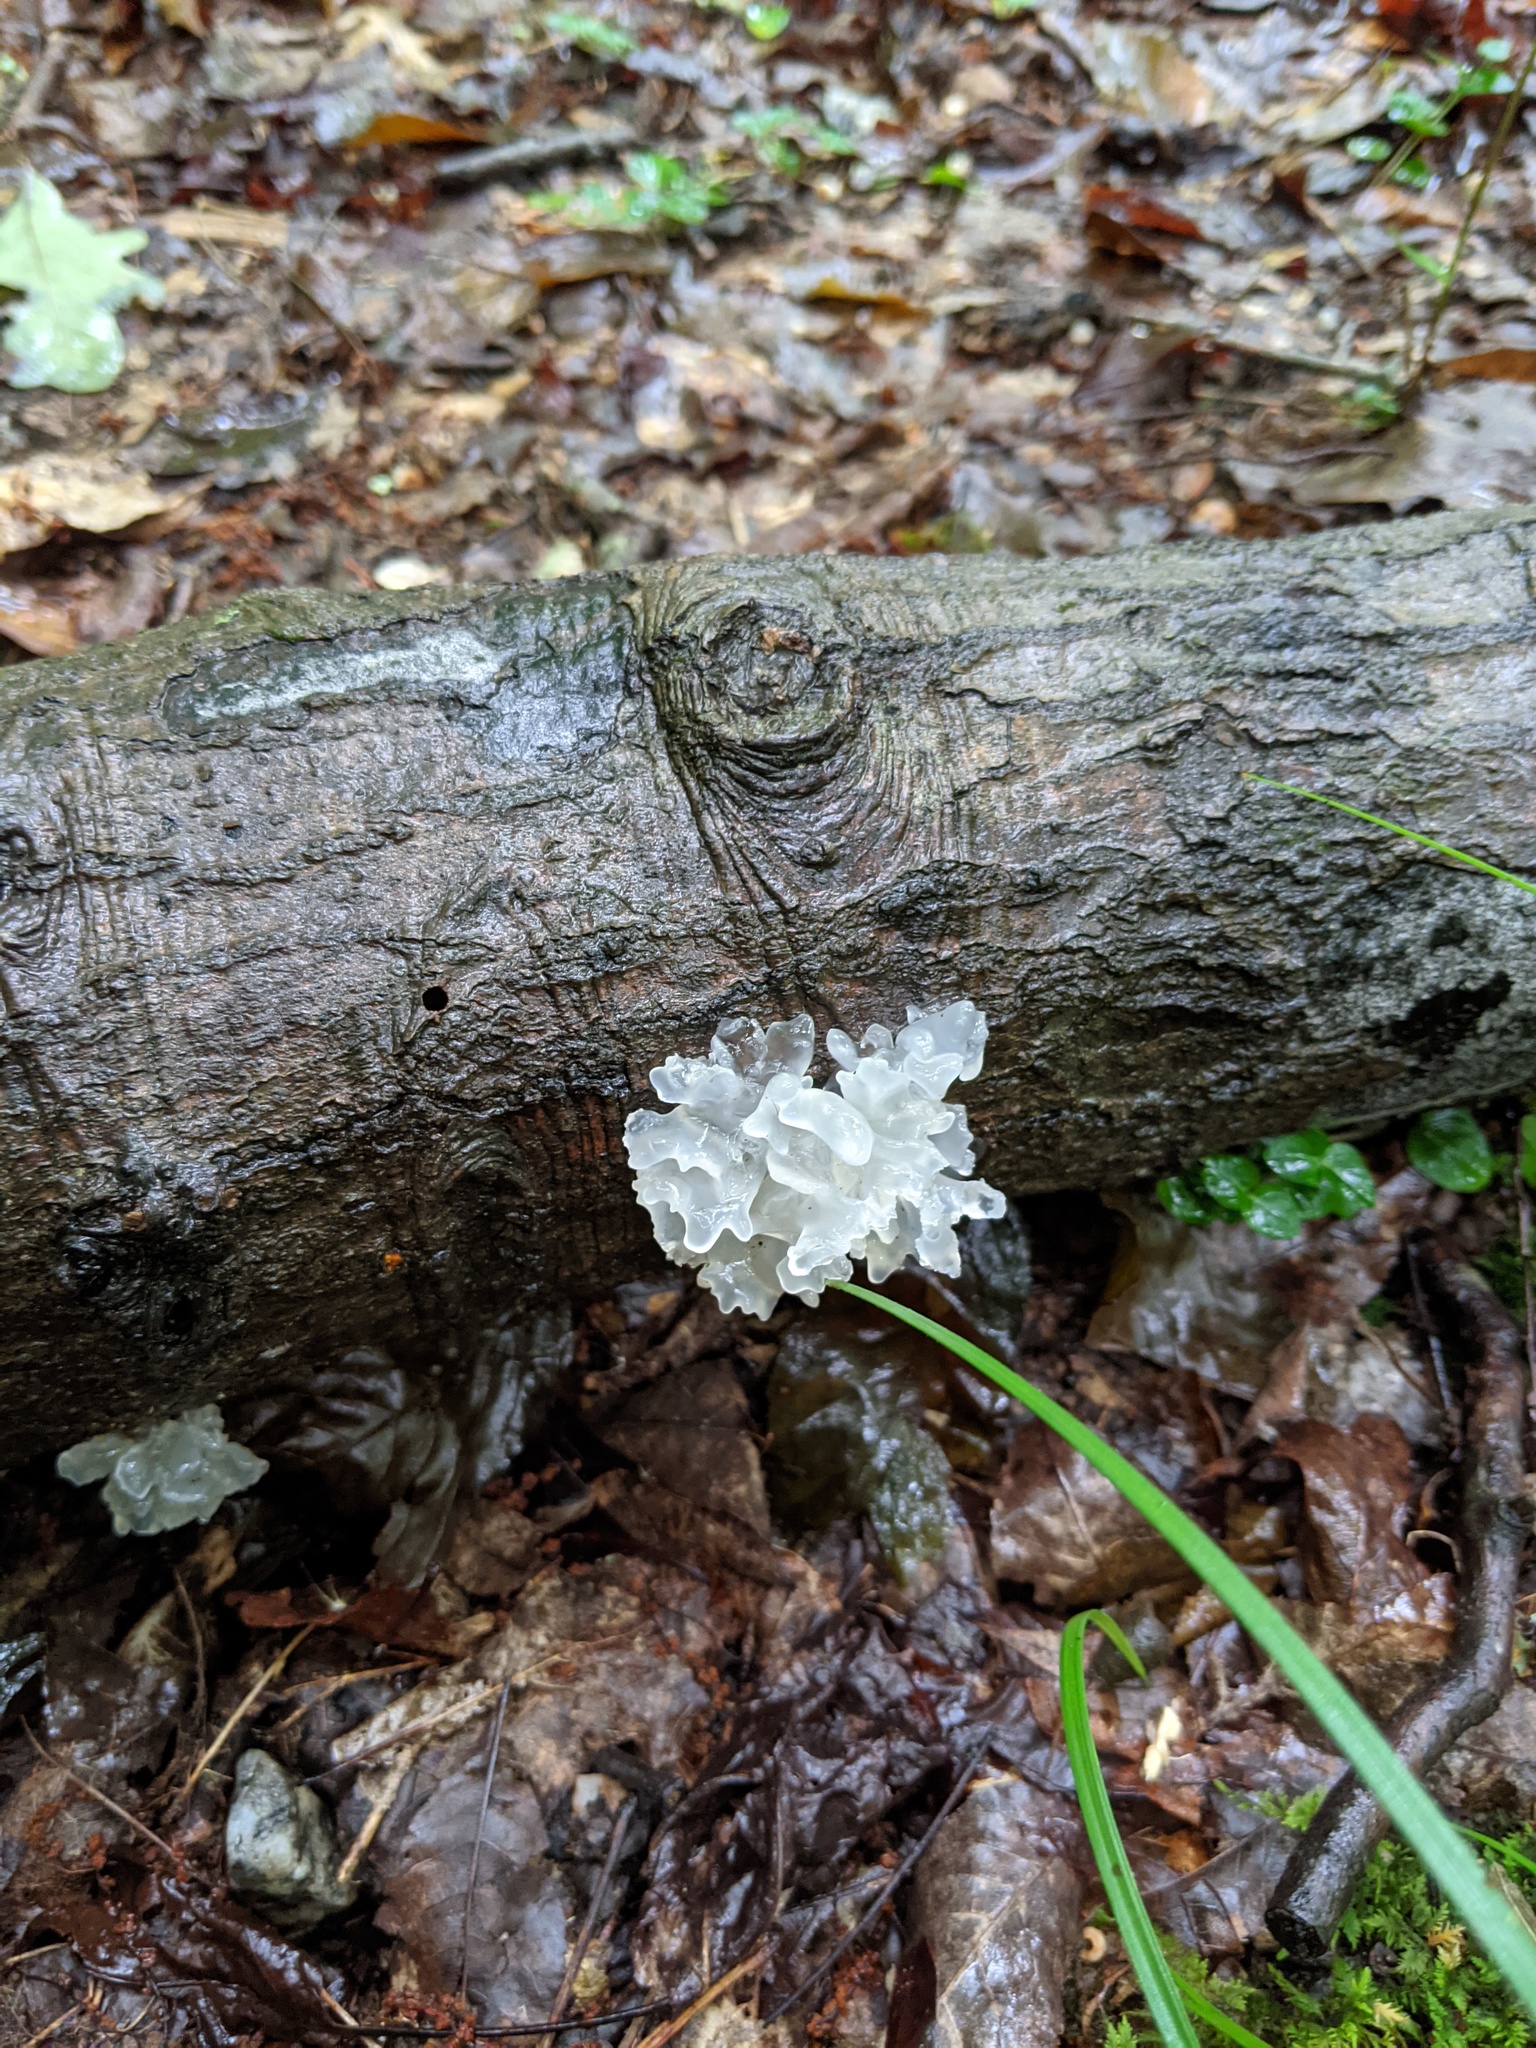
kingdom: Fungi
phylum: Basidiomycota
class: Tremellomycetes
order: Tremellales
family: Tremellaceae
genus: Tremella
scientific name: Tremella fuciformis
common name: Snow fungus
